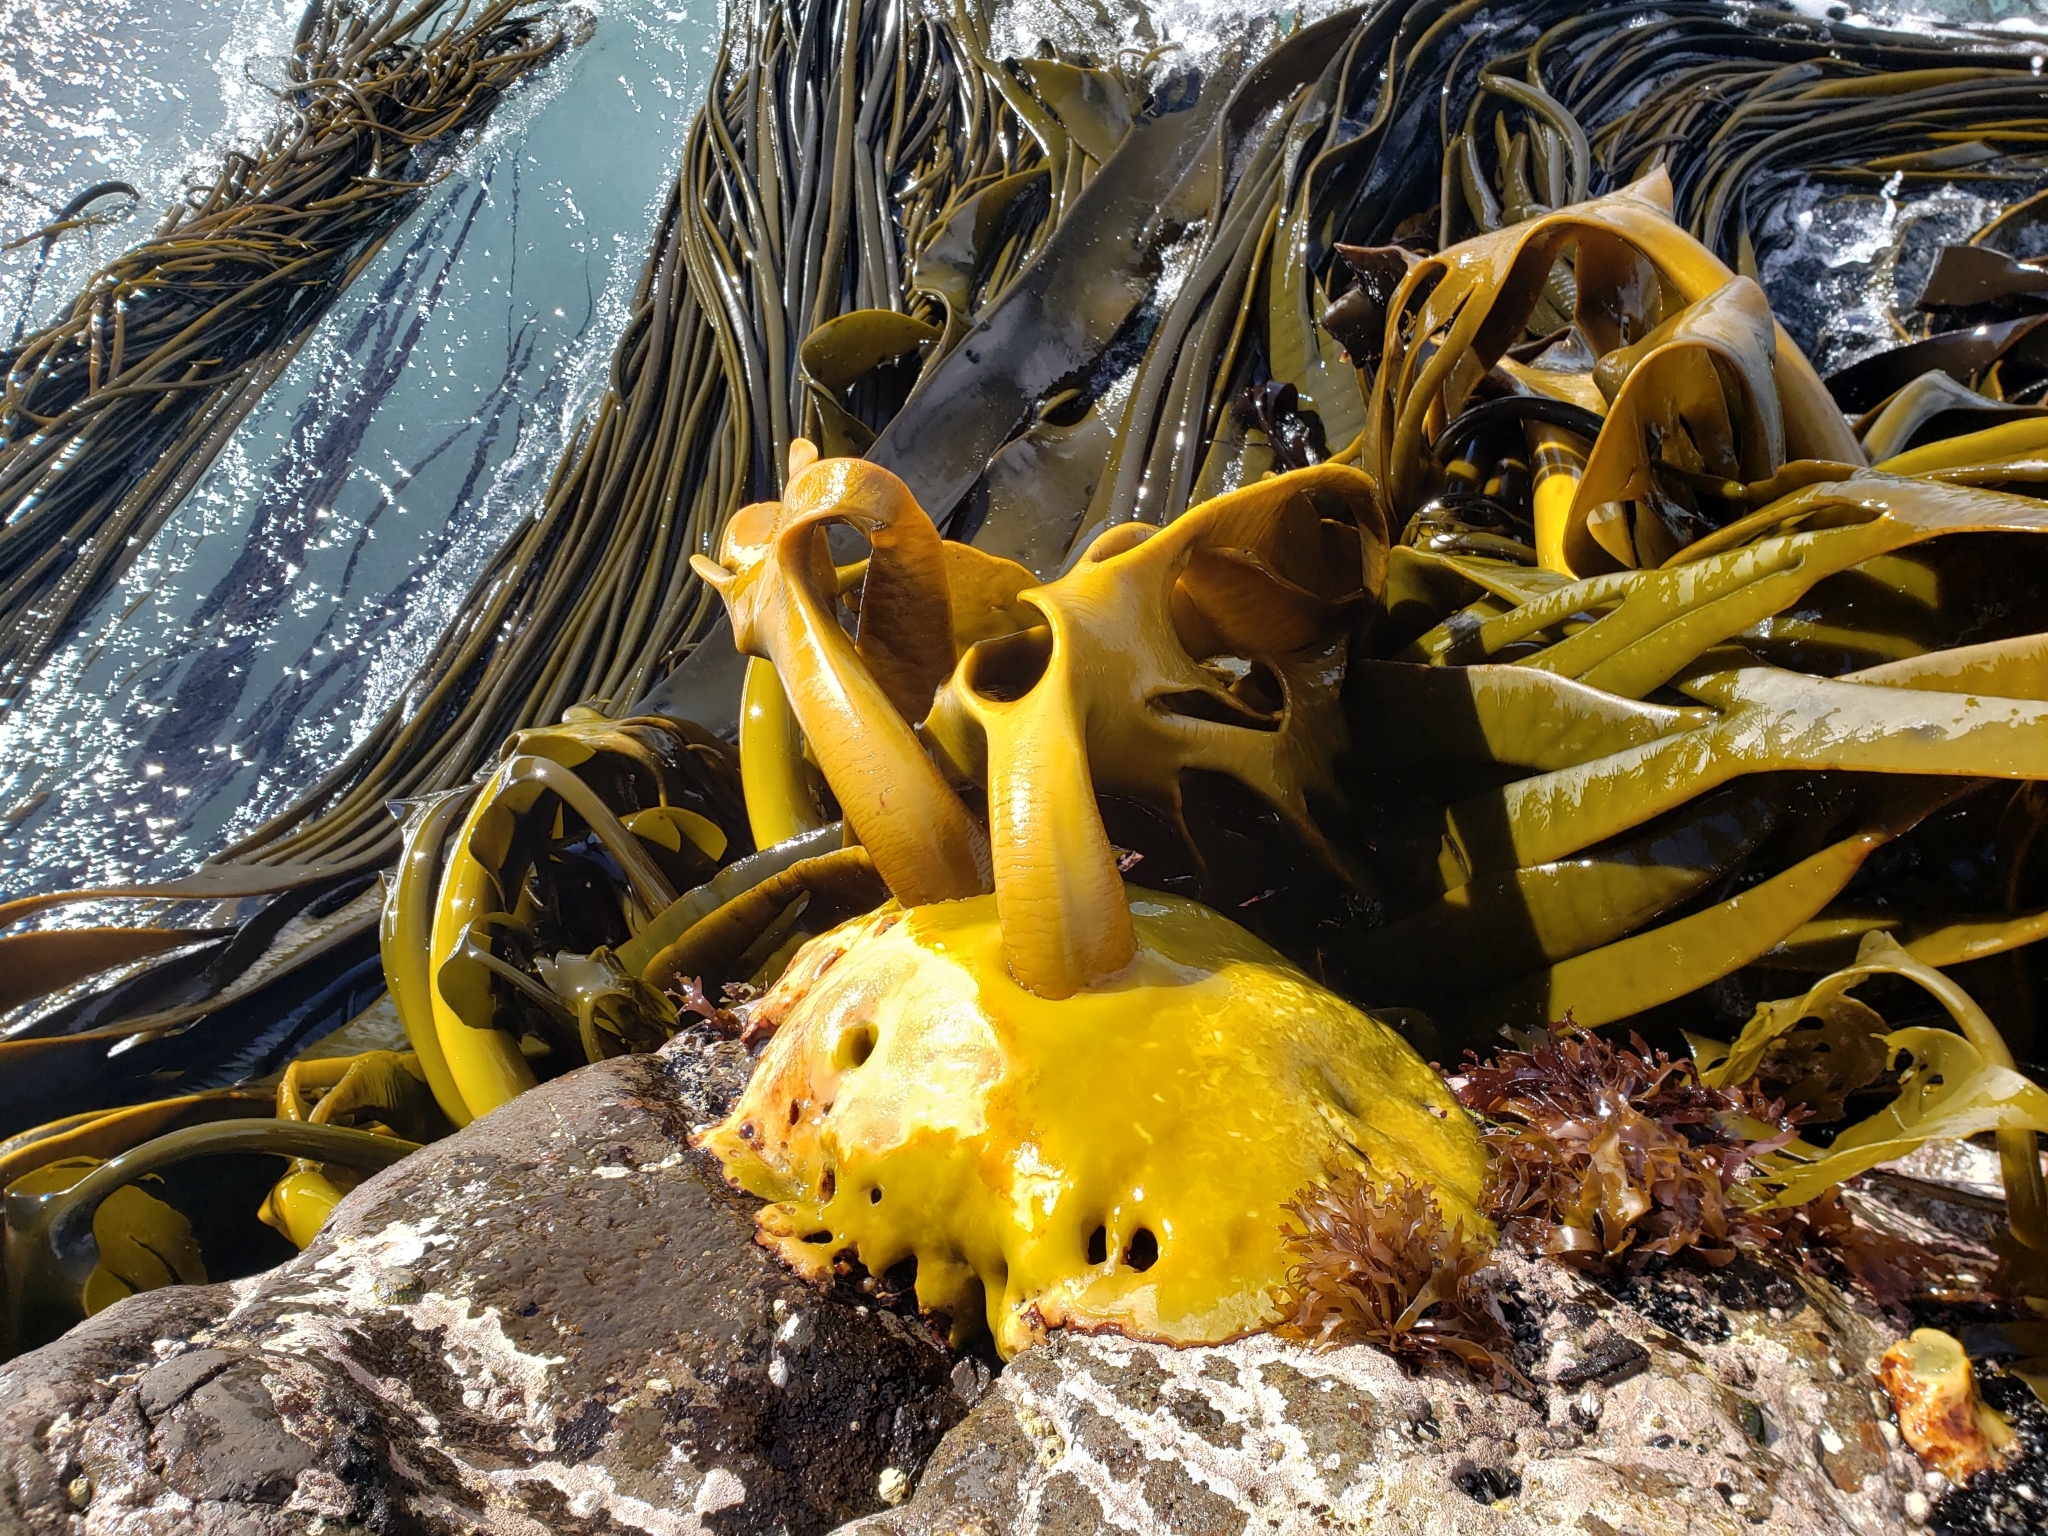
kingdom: Chromista
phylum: Ochrophyta
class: Phaeophyceae
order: Fucales
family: Durvillaeaceae
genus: Durvillaea
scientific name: Durvillaea antarctica
